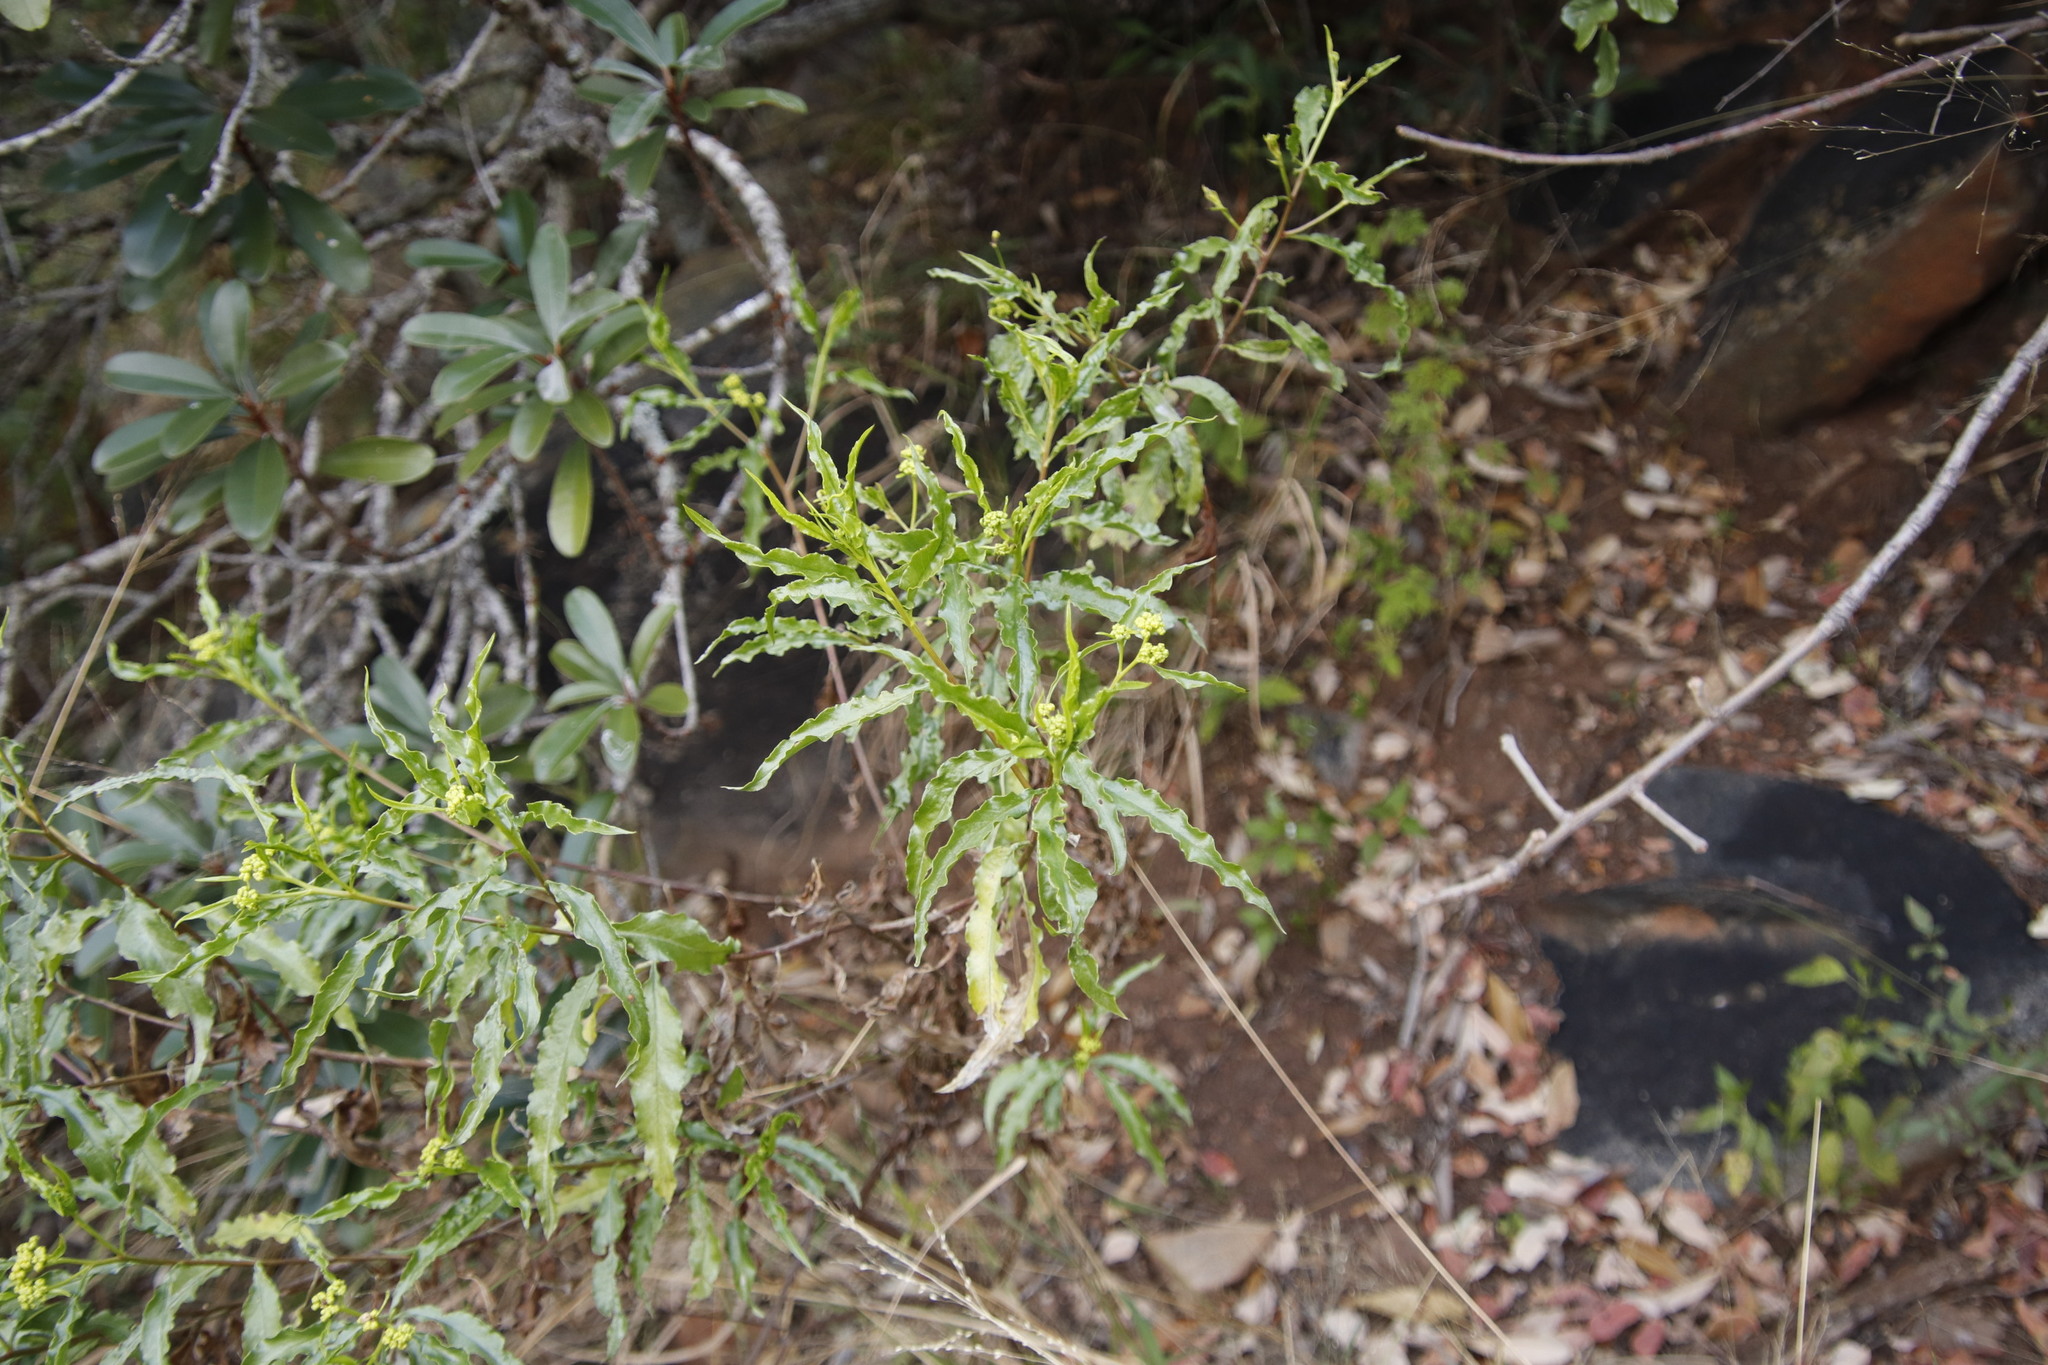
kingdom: Plantae
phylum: Tracheophyta
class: Magnoliopsida
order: Asterales
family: Asteraceae
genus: Psiadia
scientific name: Psiadia punctulata
